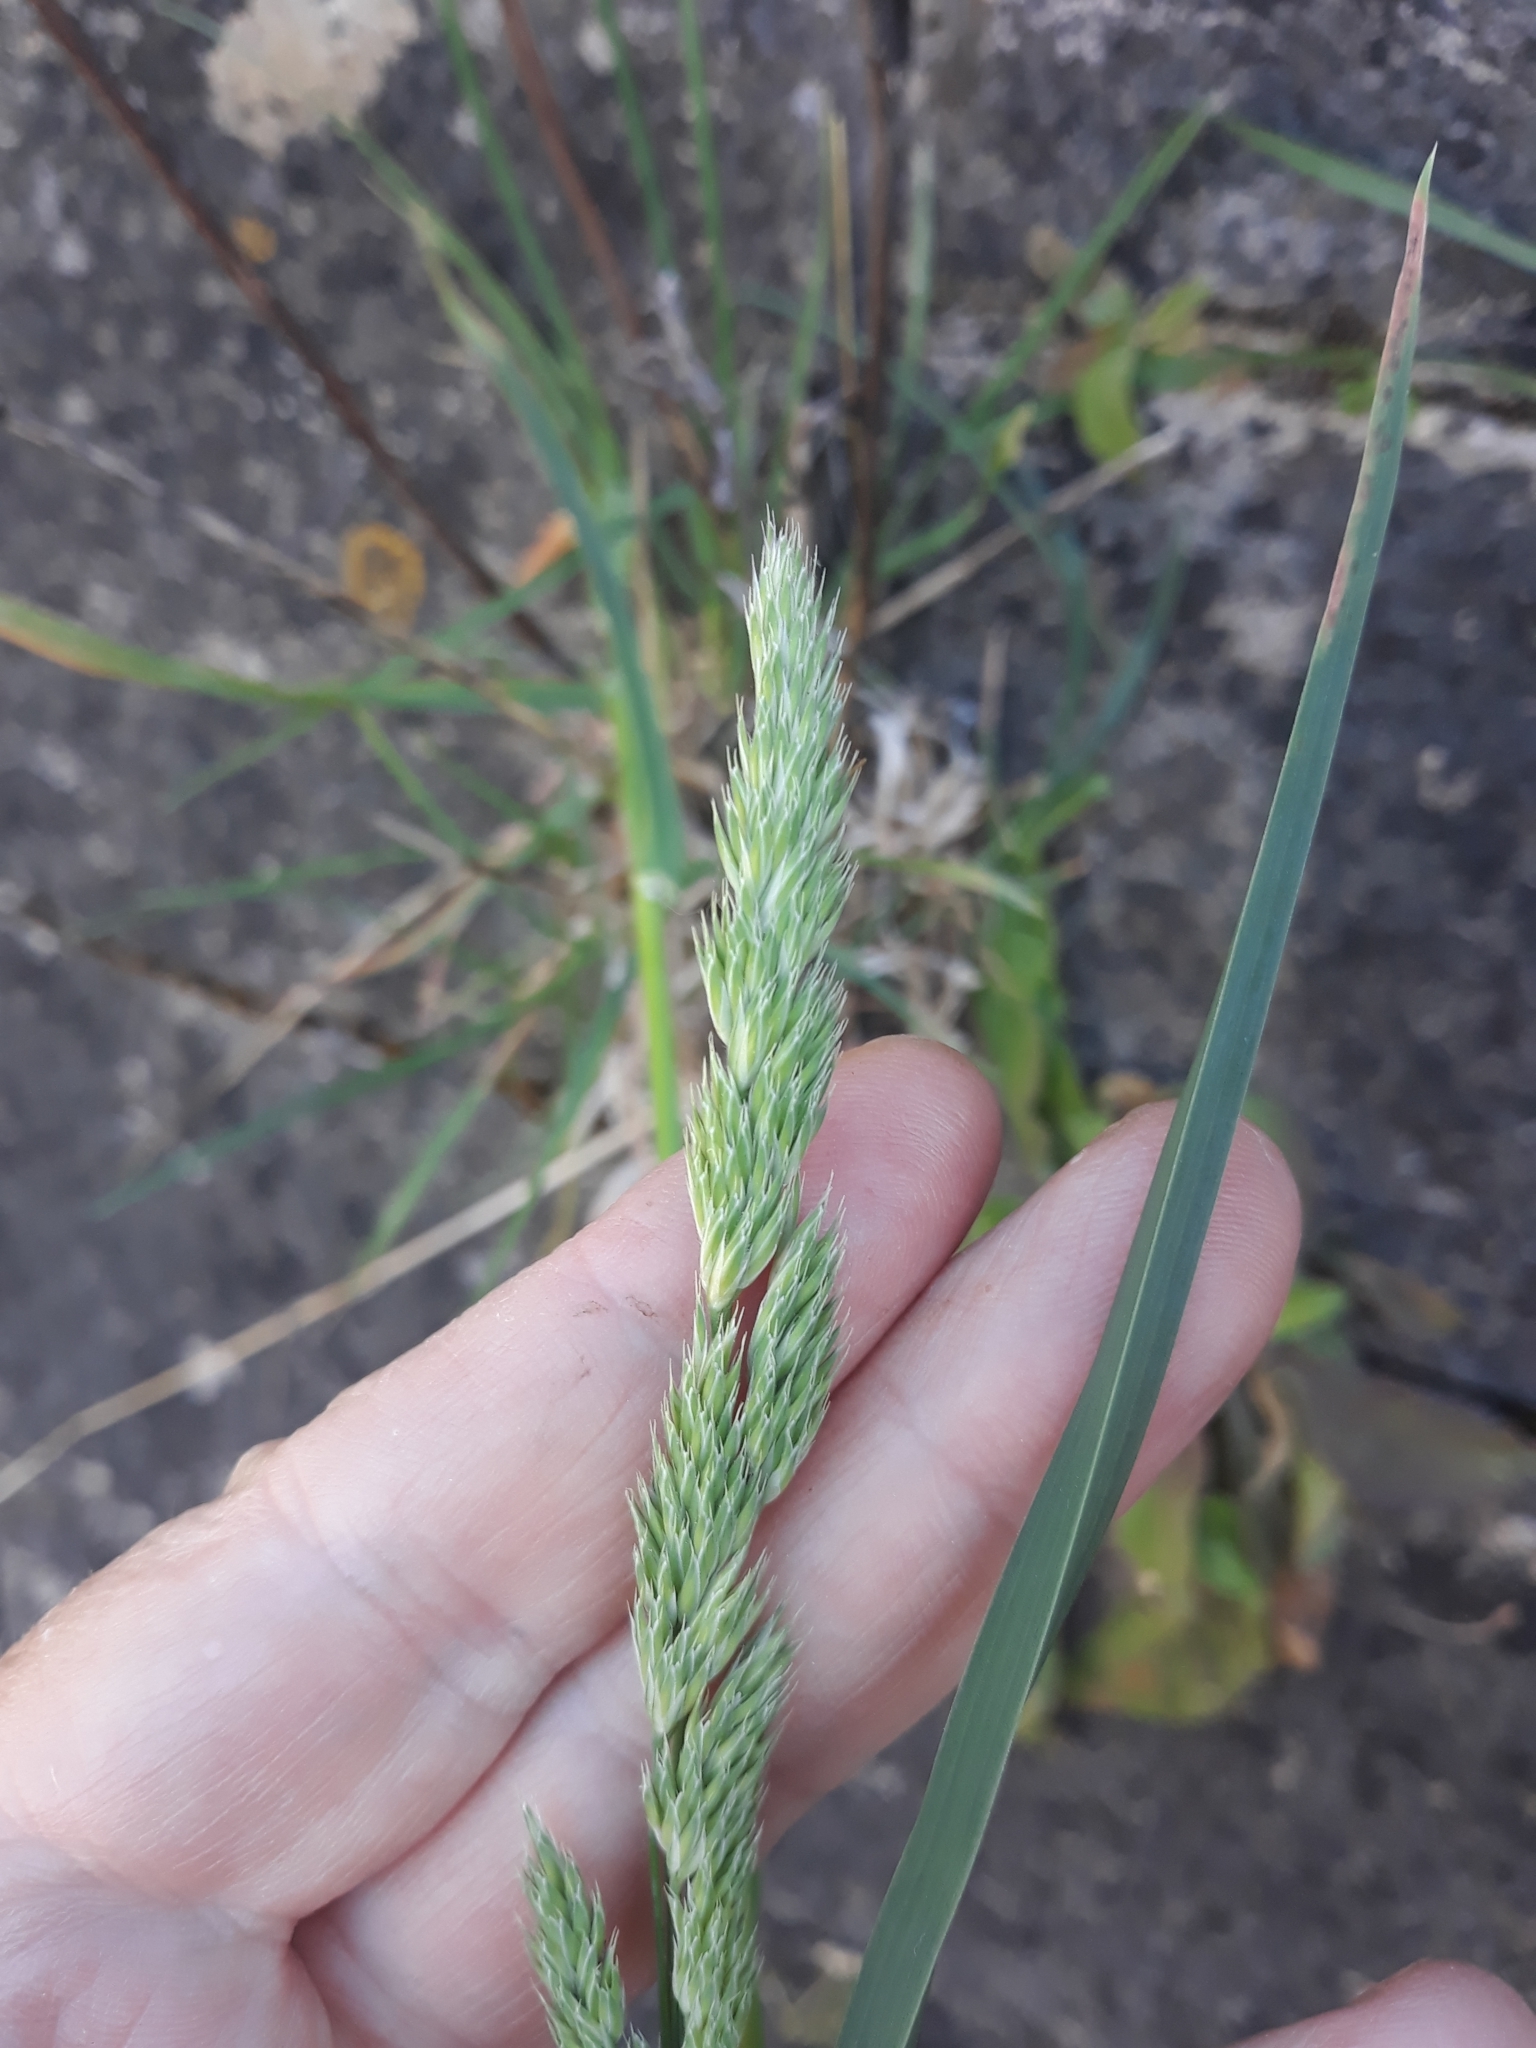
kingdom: Plantae
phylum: Tracheophyta
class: Liliopsida
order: Poales
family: Poaceae
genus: Dactylis
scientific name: Dactylis glomerata
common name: Orchardgrass
